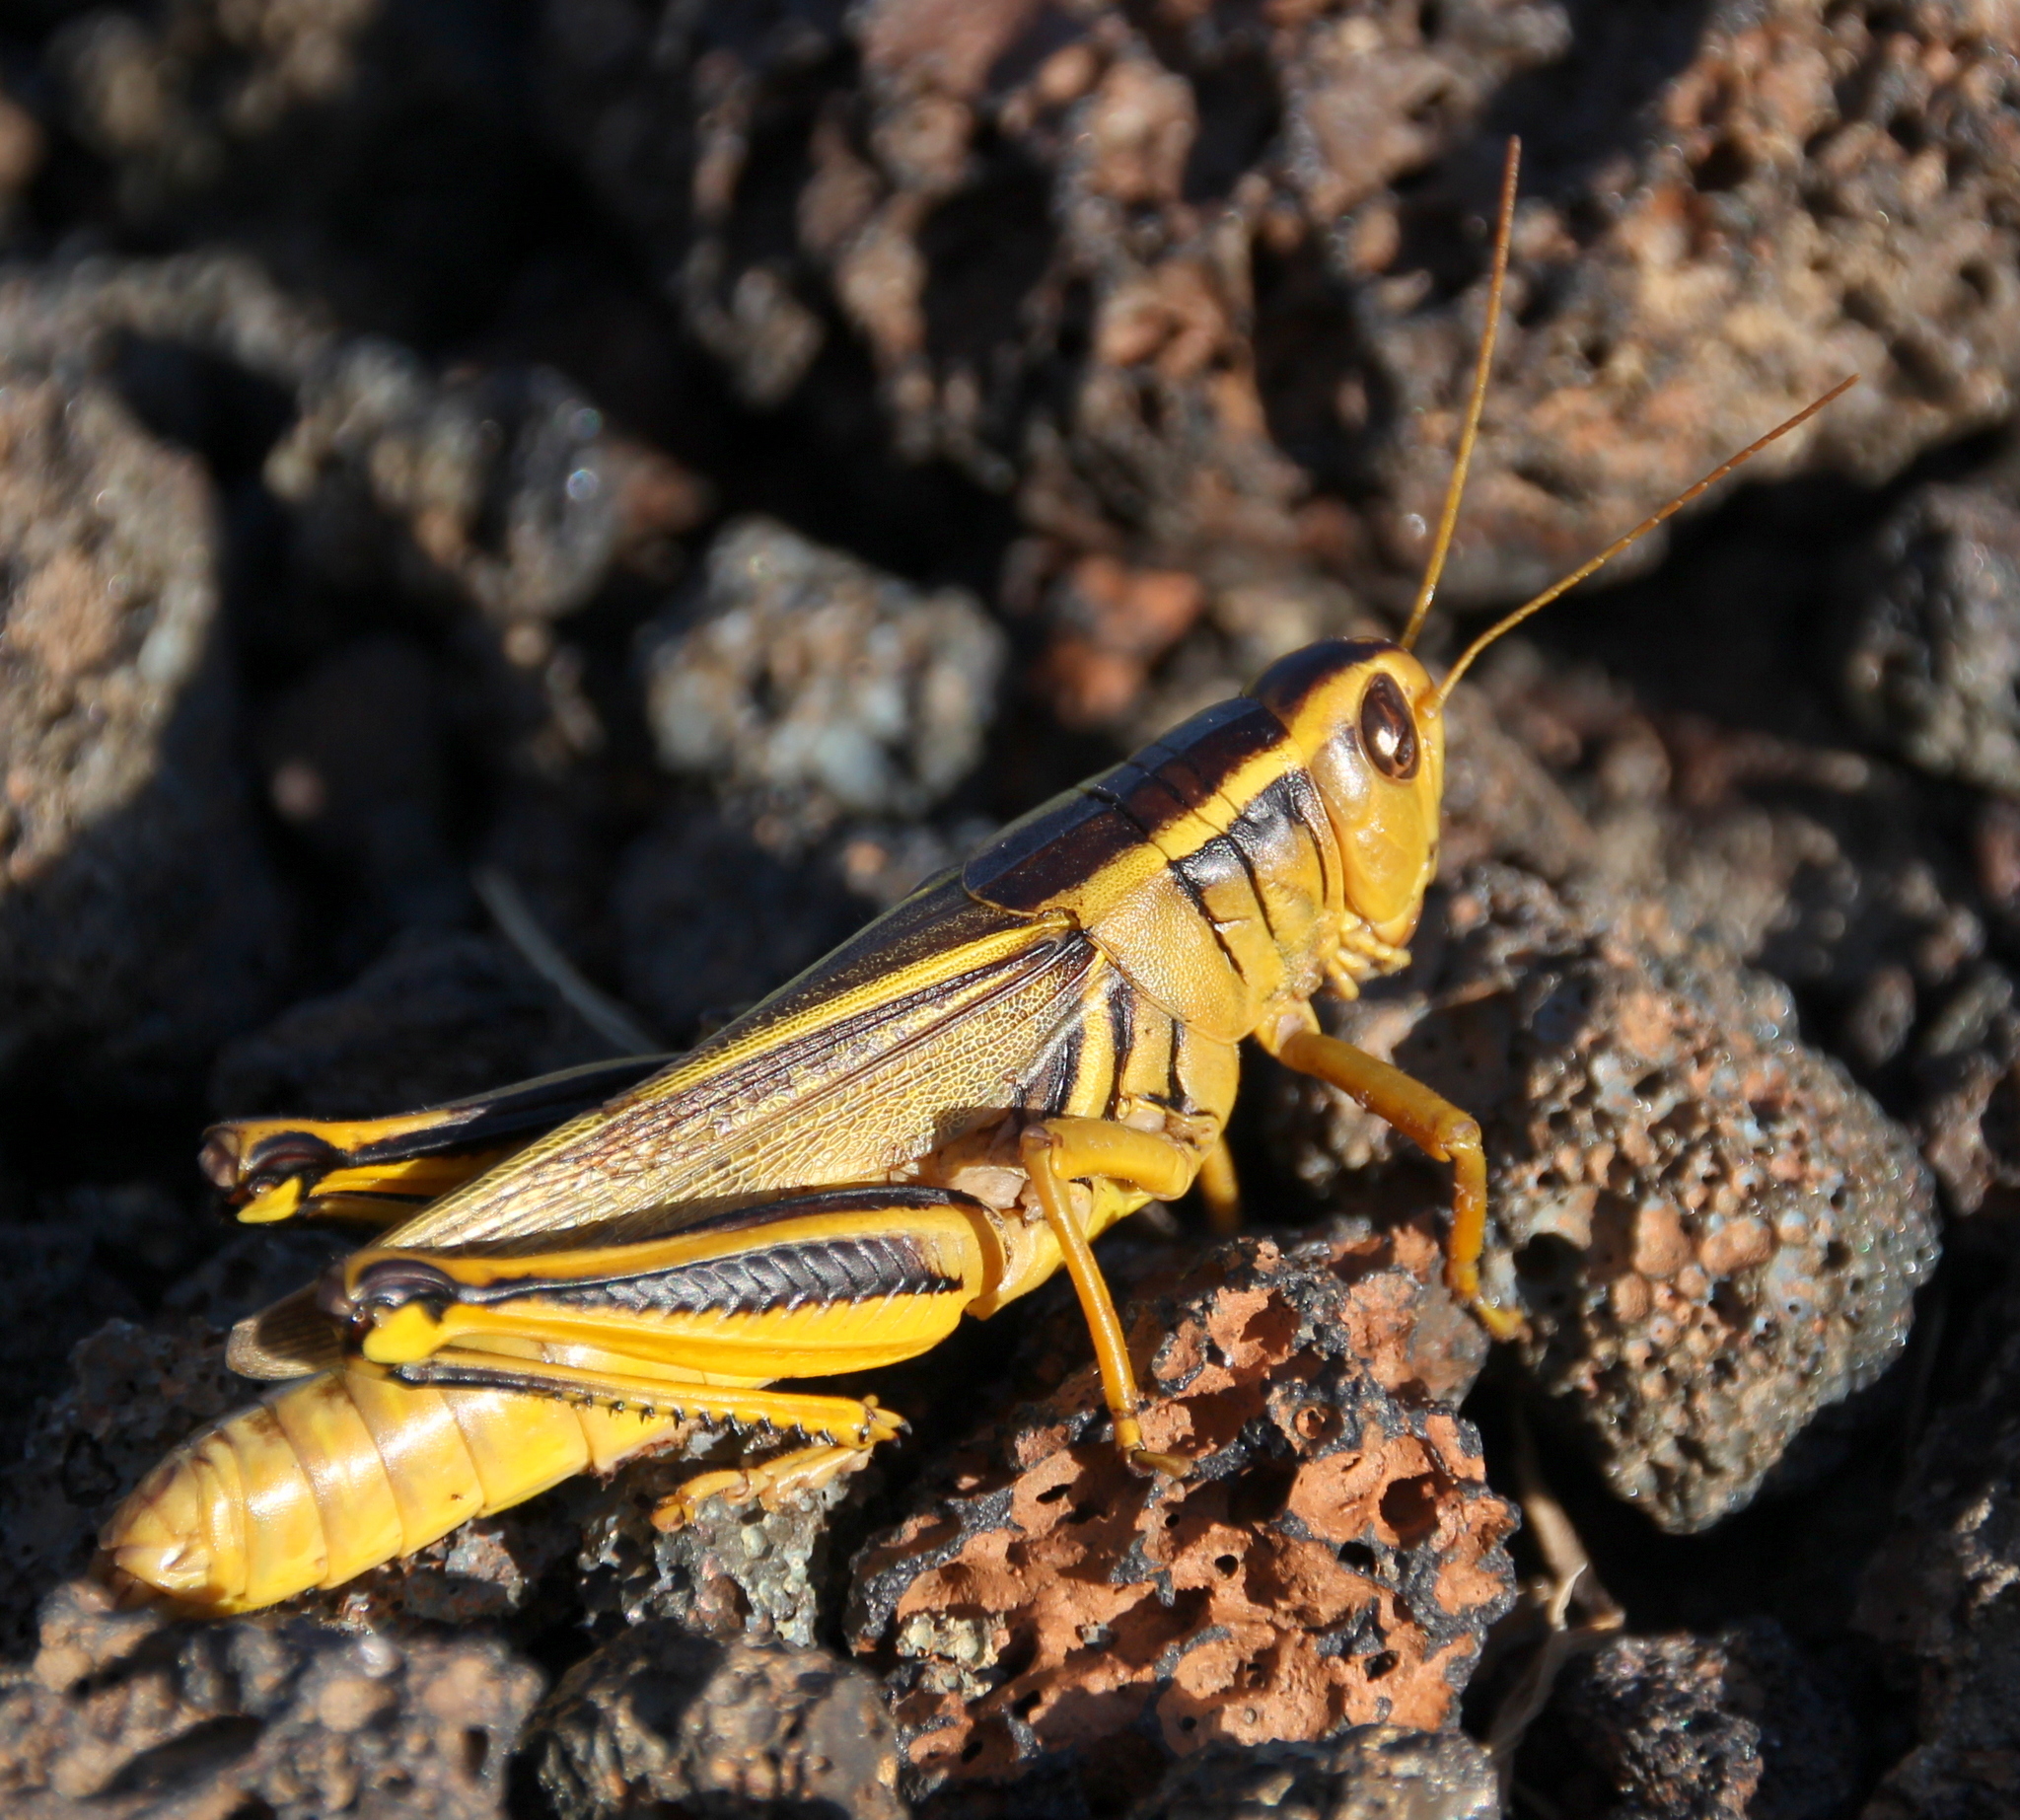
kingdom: Animalia
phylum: Arthropoda
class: Insecta
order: Orthoptera
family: Acrididae
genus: Melanoplus
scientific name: Melanoplus bivittatus
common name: Two-striped grasshopper
